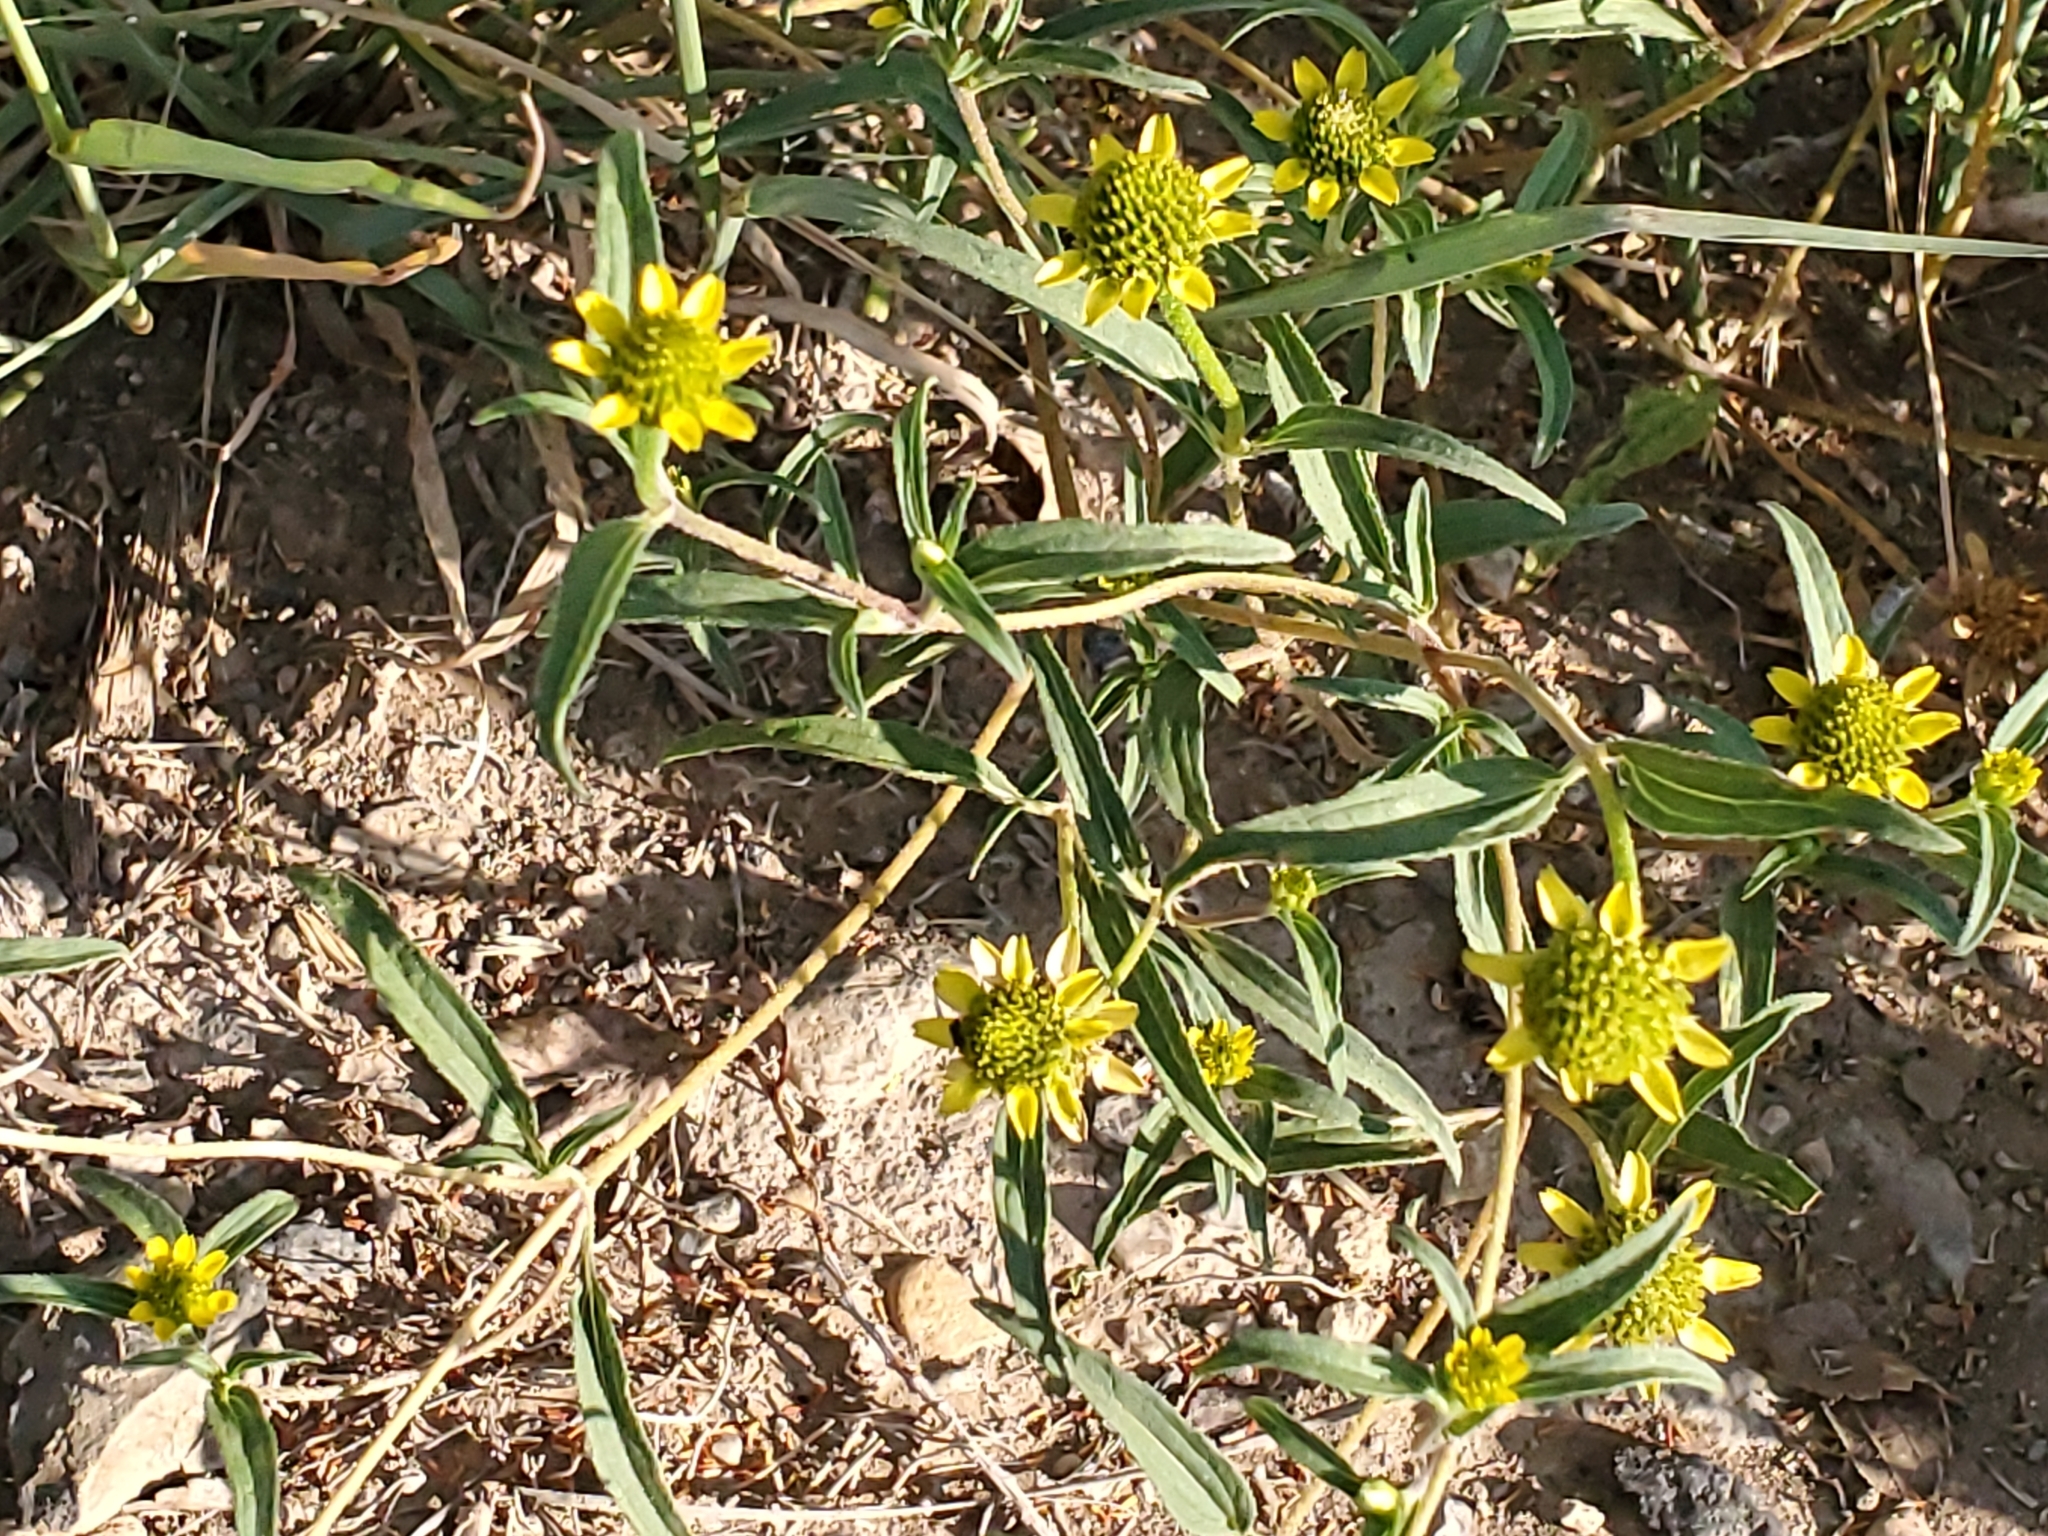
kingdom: Plantae
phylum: Tracheophyta
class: Magnoliopsida
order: Asterales
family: Asteraceae
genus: Sanvitalia
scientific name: Sanvitalia abertii
